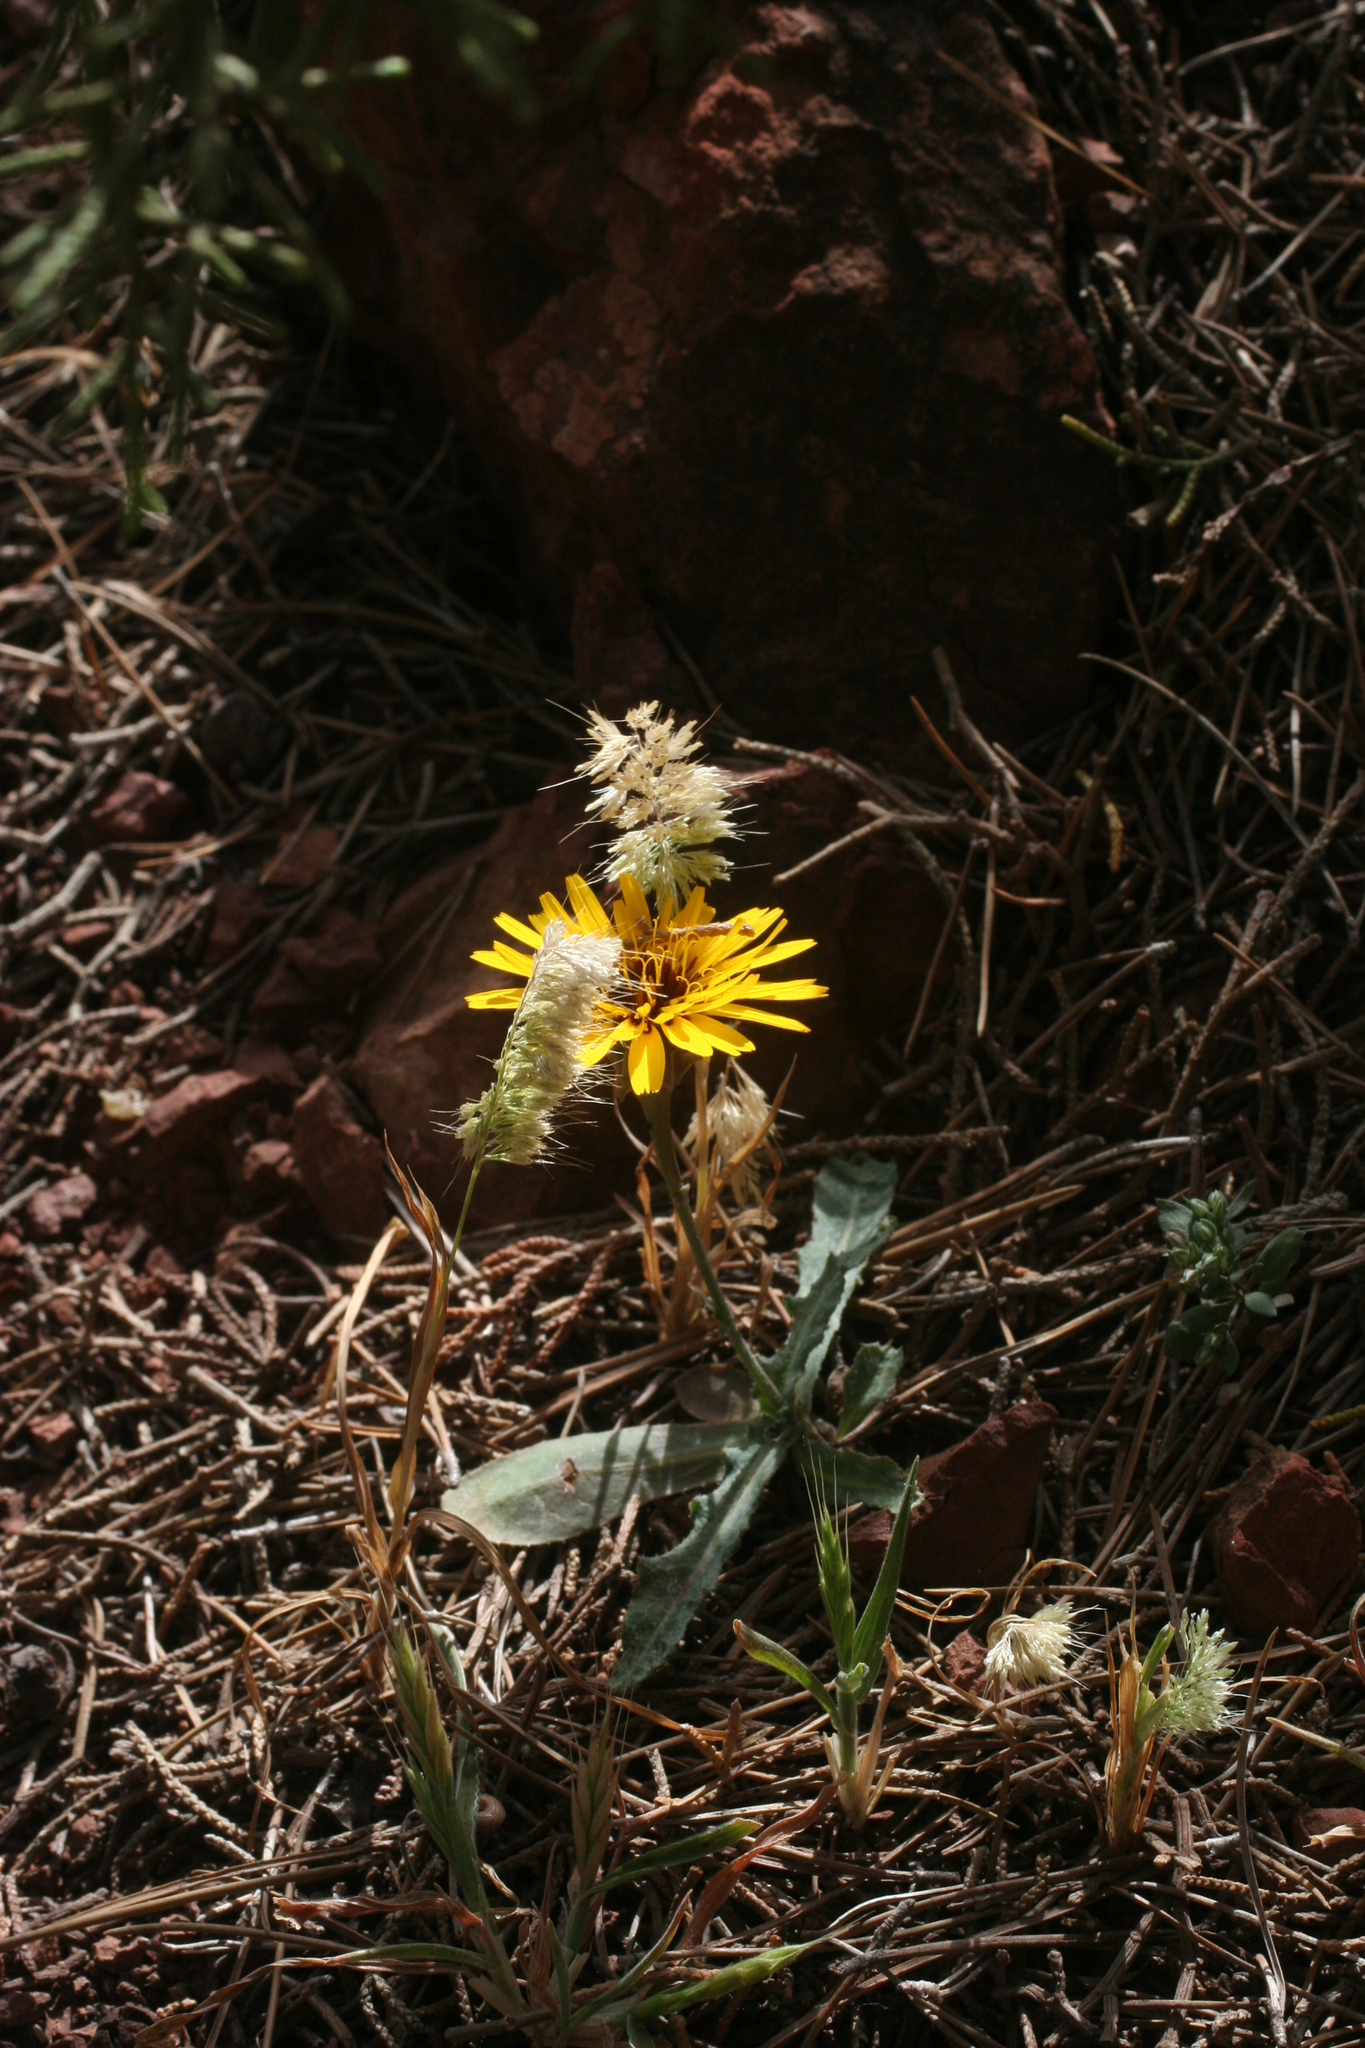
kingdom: Plantae
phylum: Tracheophyta
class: Magnoliopsida
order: Asterales
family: Asteraceae
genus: Reichardia
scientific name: Reichardia tingitana
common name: Reichardia
